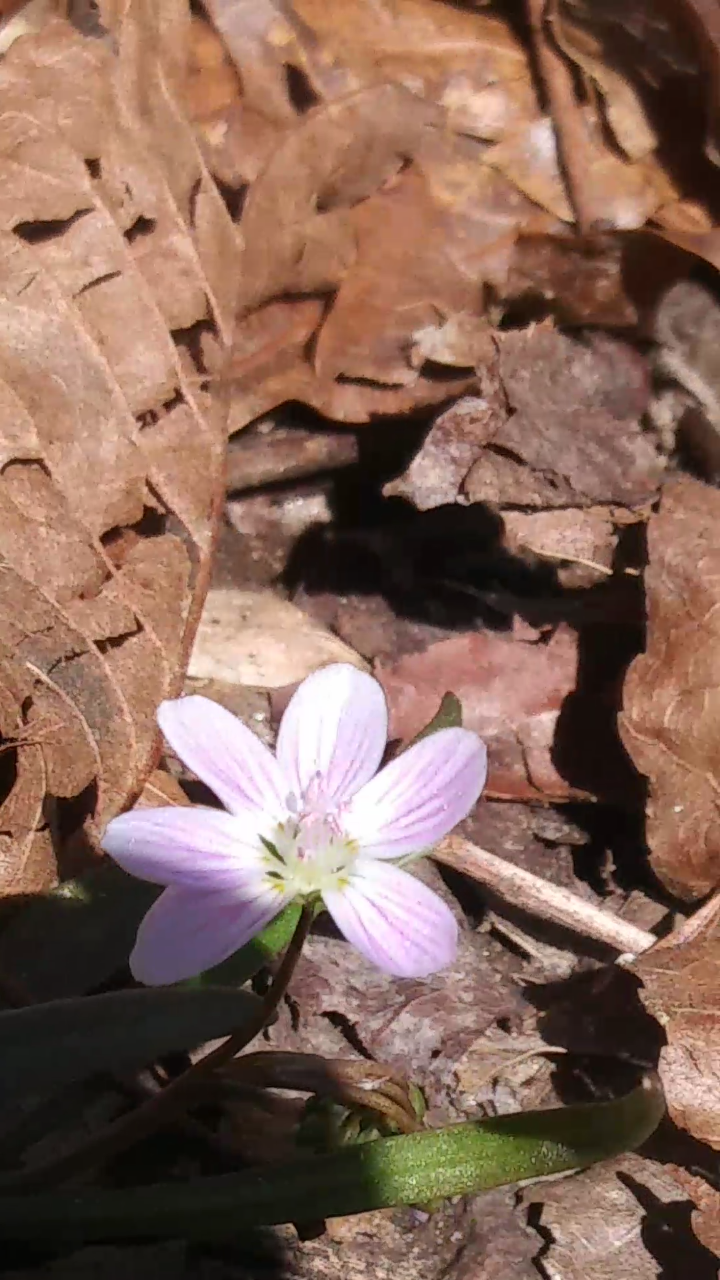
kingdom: Plantae
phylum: Tracheophyta
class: Magnoliopsida
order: Caryophyllales
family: Montiaceae
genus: Claytonia
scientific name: Claytonia virginica
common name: Virginia springbeauty
